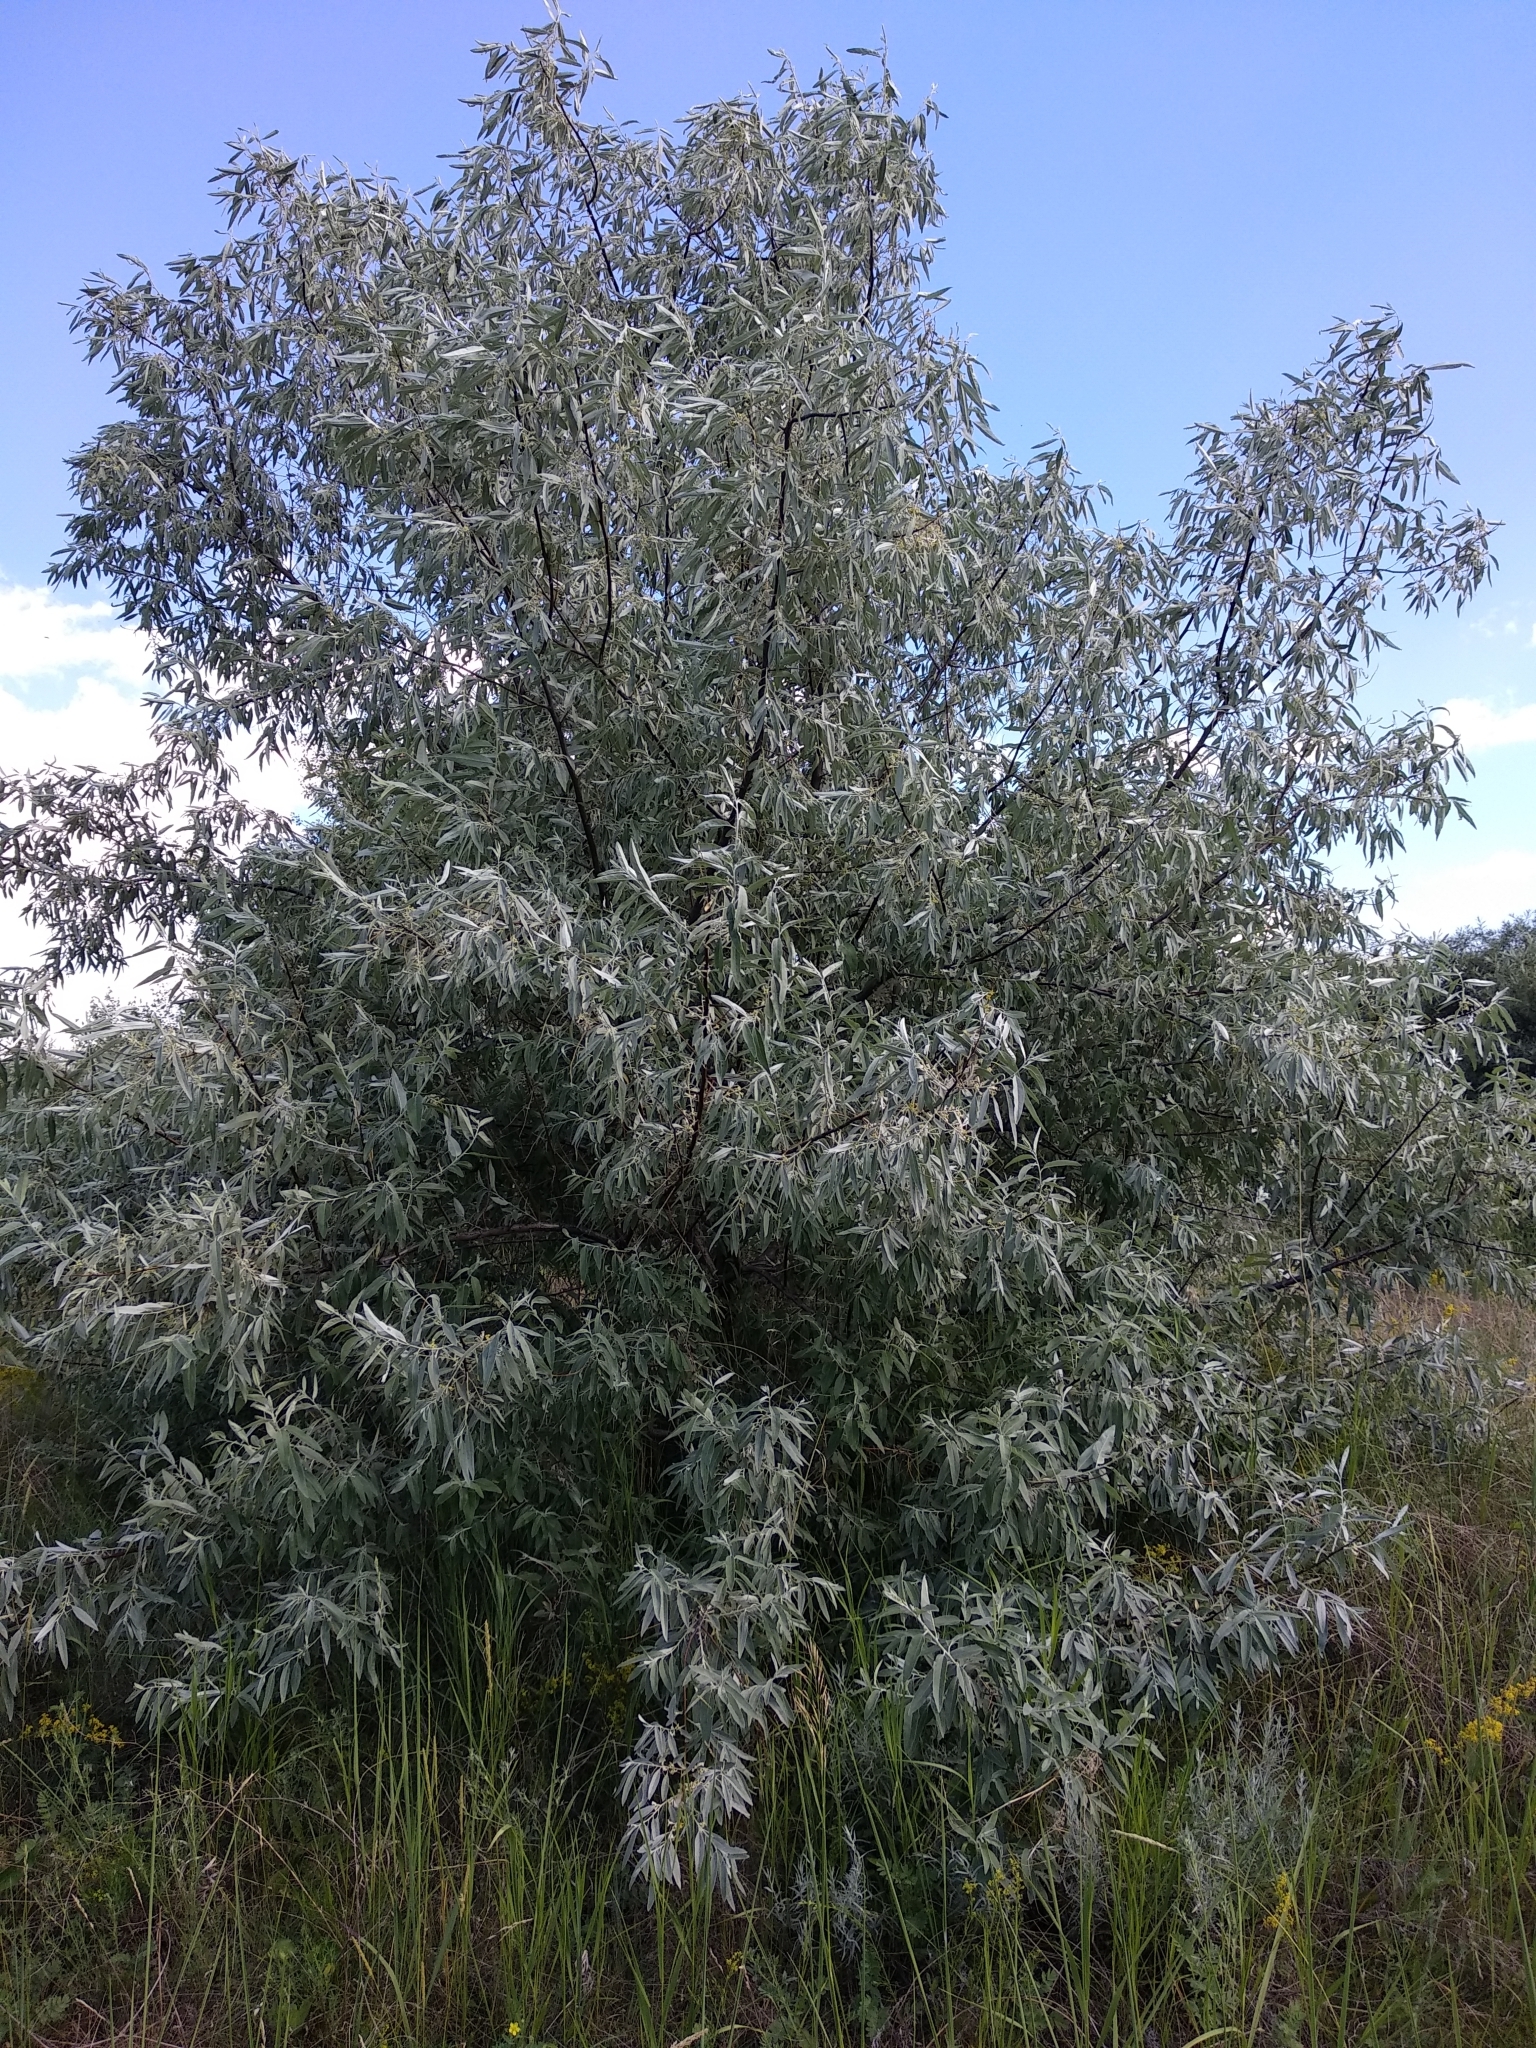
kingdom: Plantae
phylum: Tracheophyta
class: Magnoliopsida
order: Rosales
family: Elaeagnaceae
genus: Elaeagnus
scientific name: Elaeagnus angustifolia
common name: Russian olive
